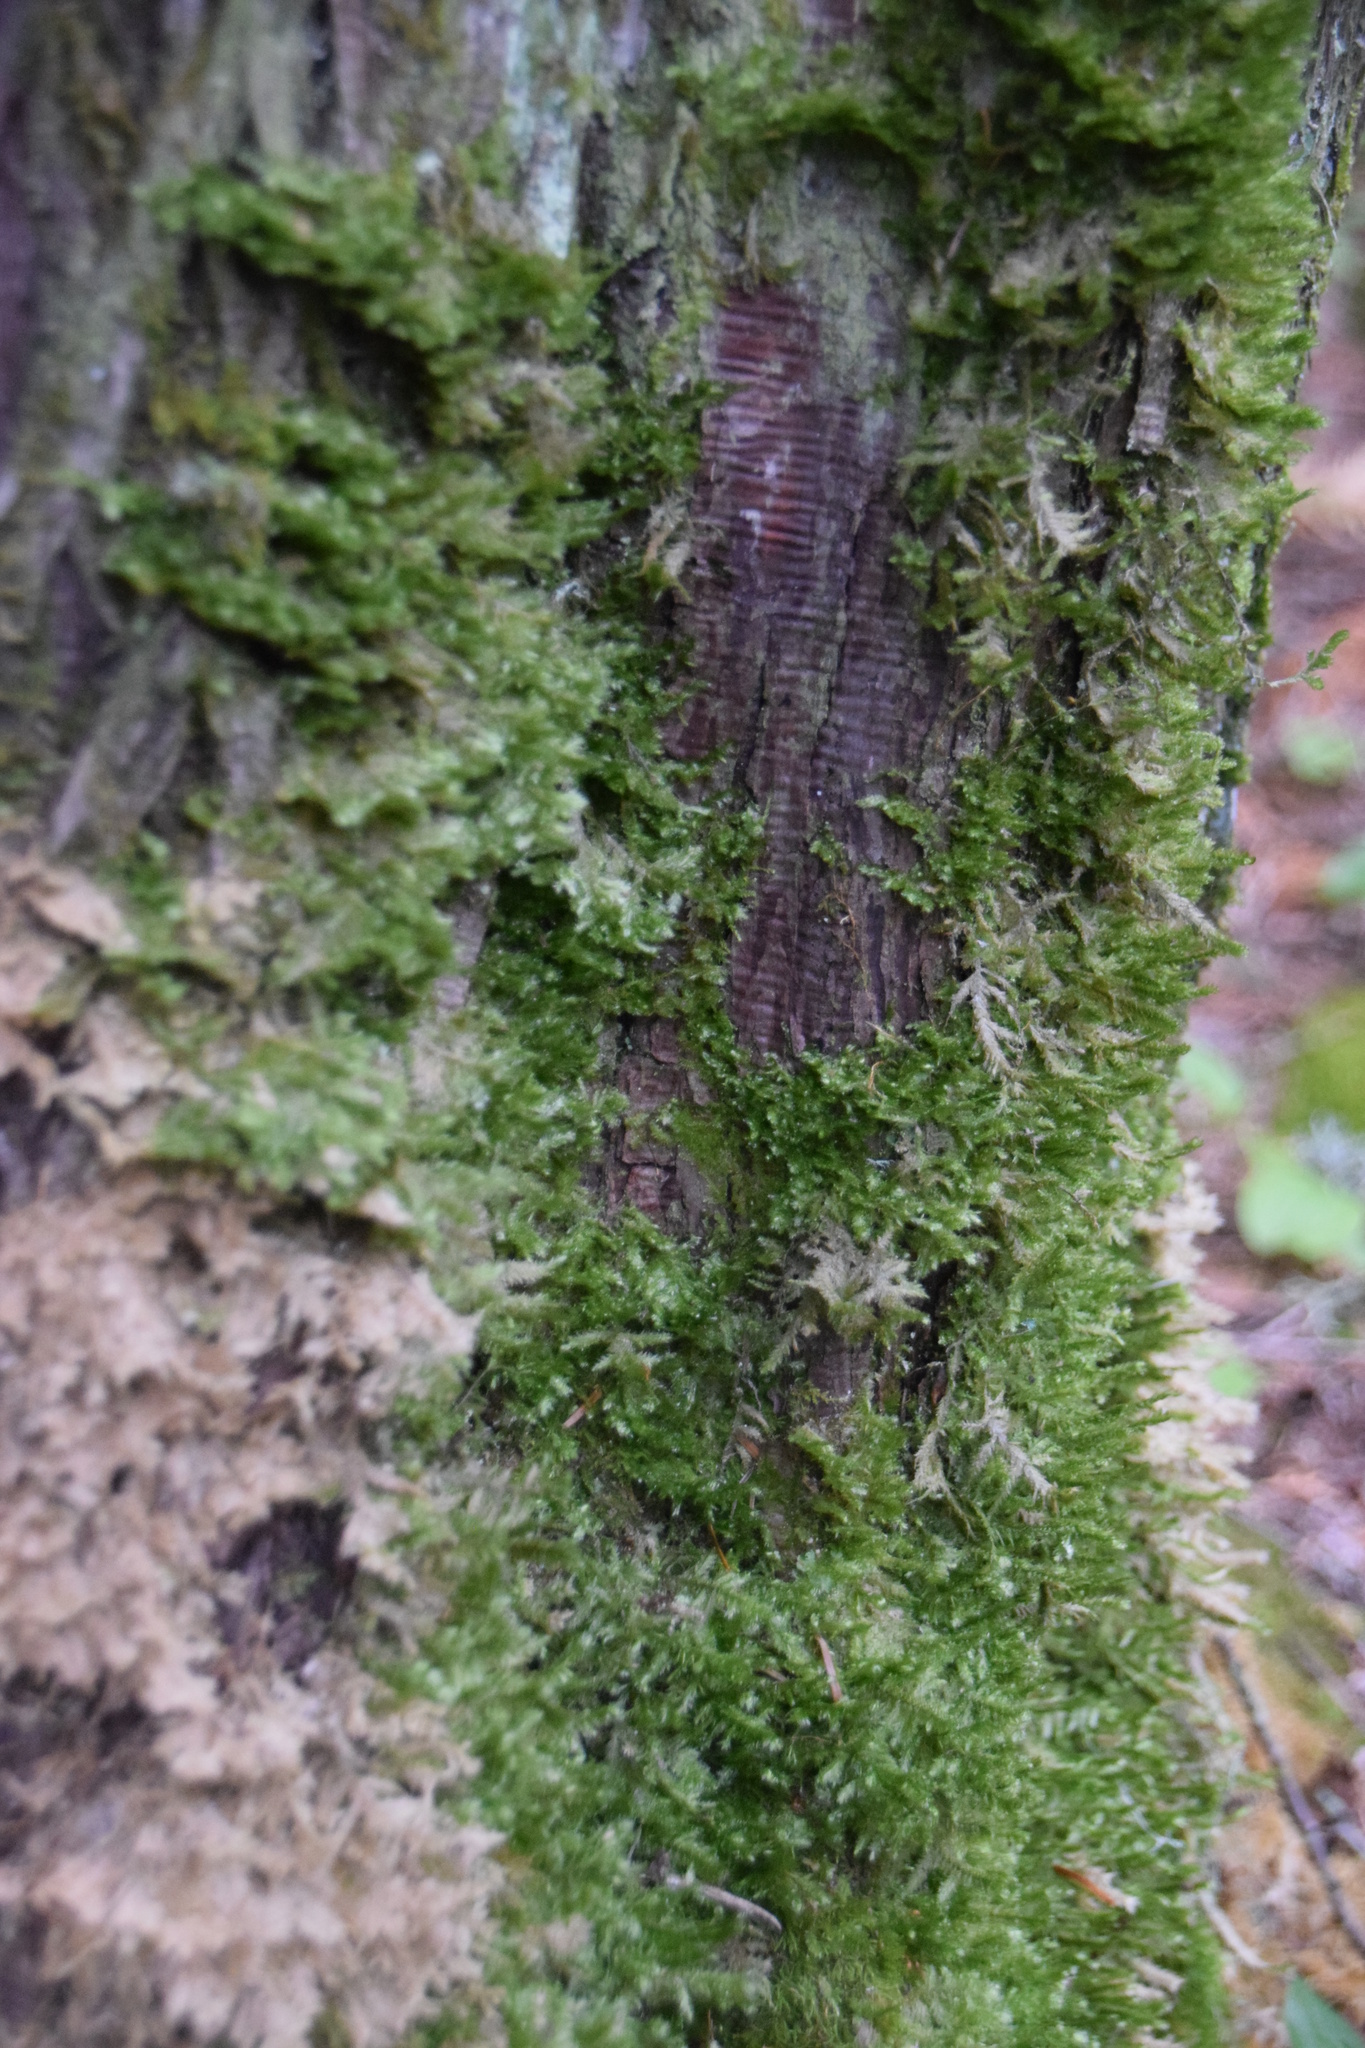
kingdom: Plantae
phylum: Bryophyta
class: Bryopsida
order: Hypnales
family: Neckeraceae
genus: Neckera
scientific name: Neckera pennata
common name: Feathery neckera
